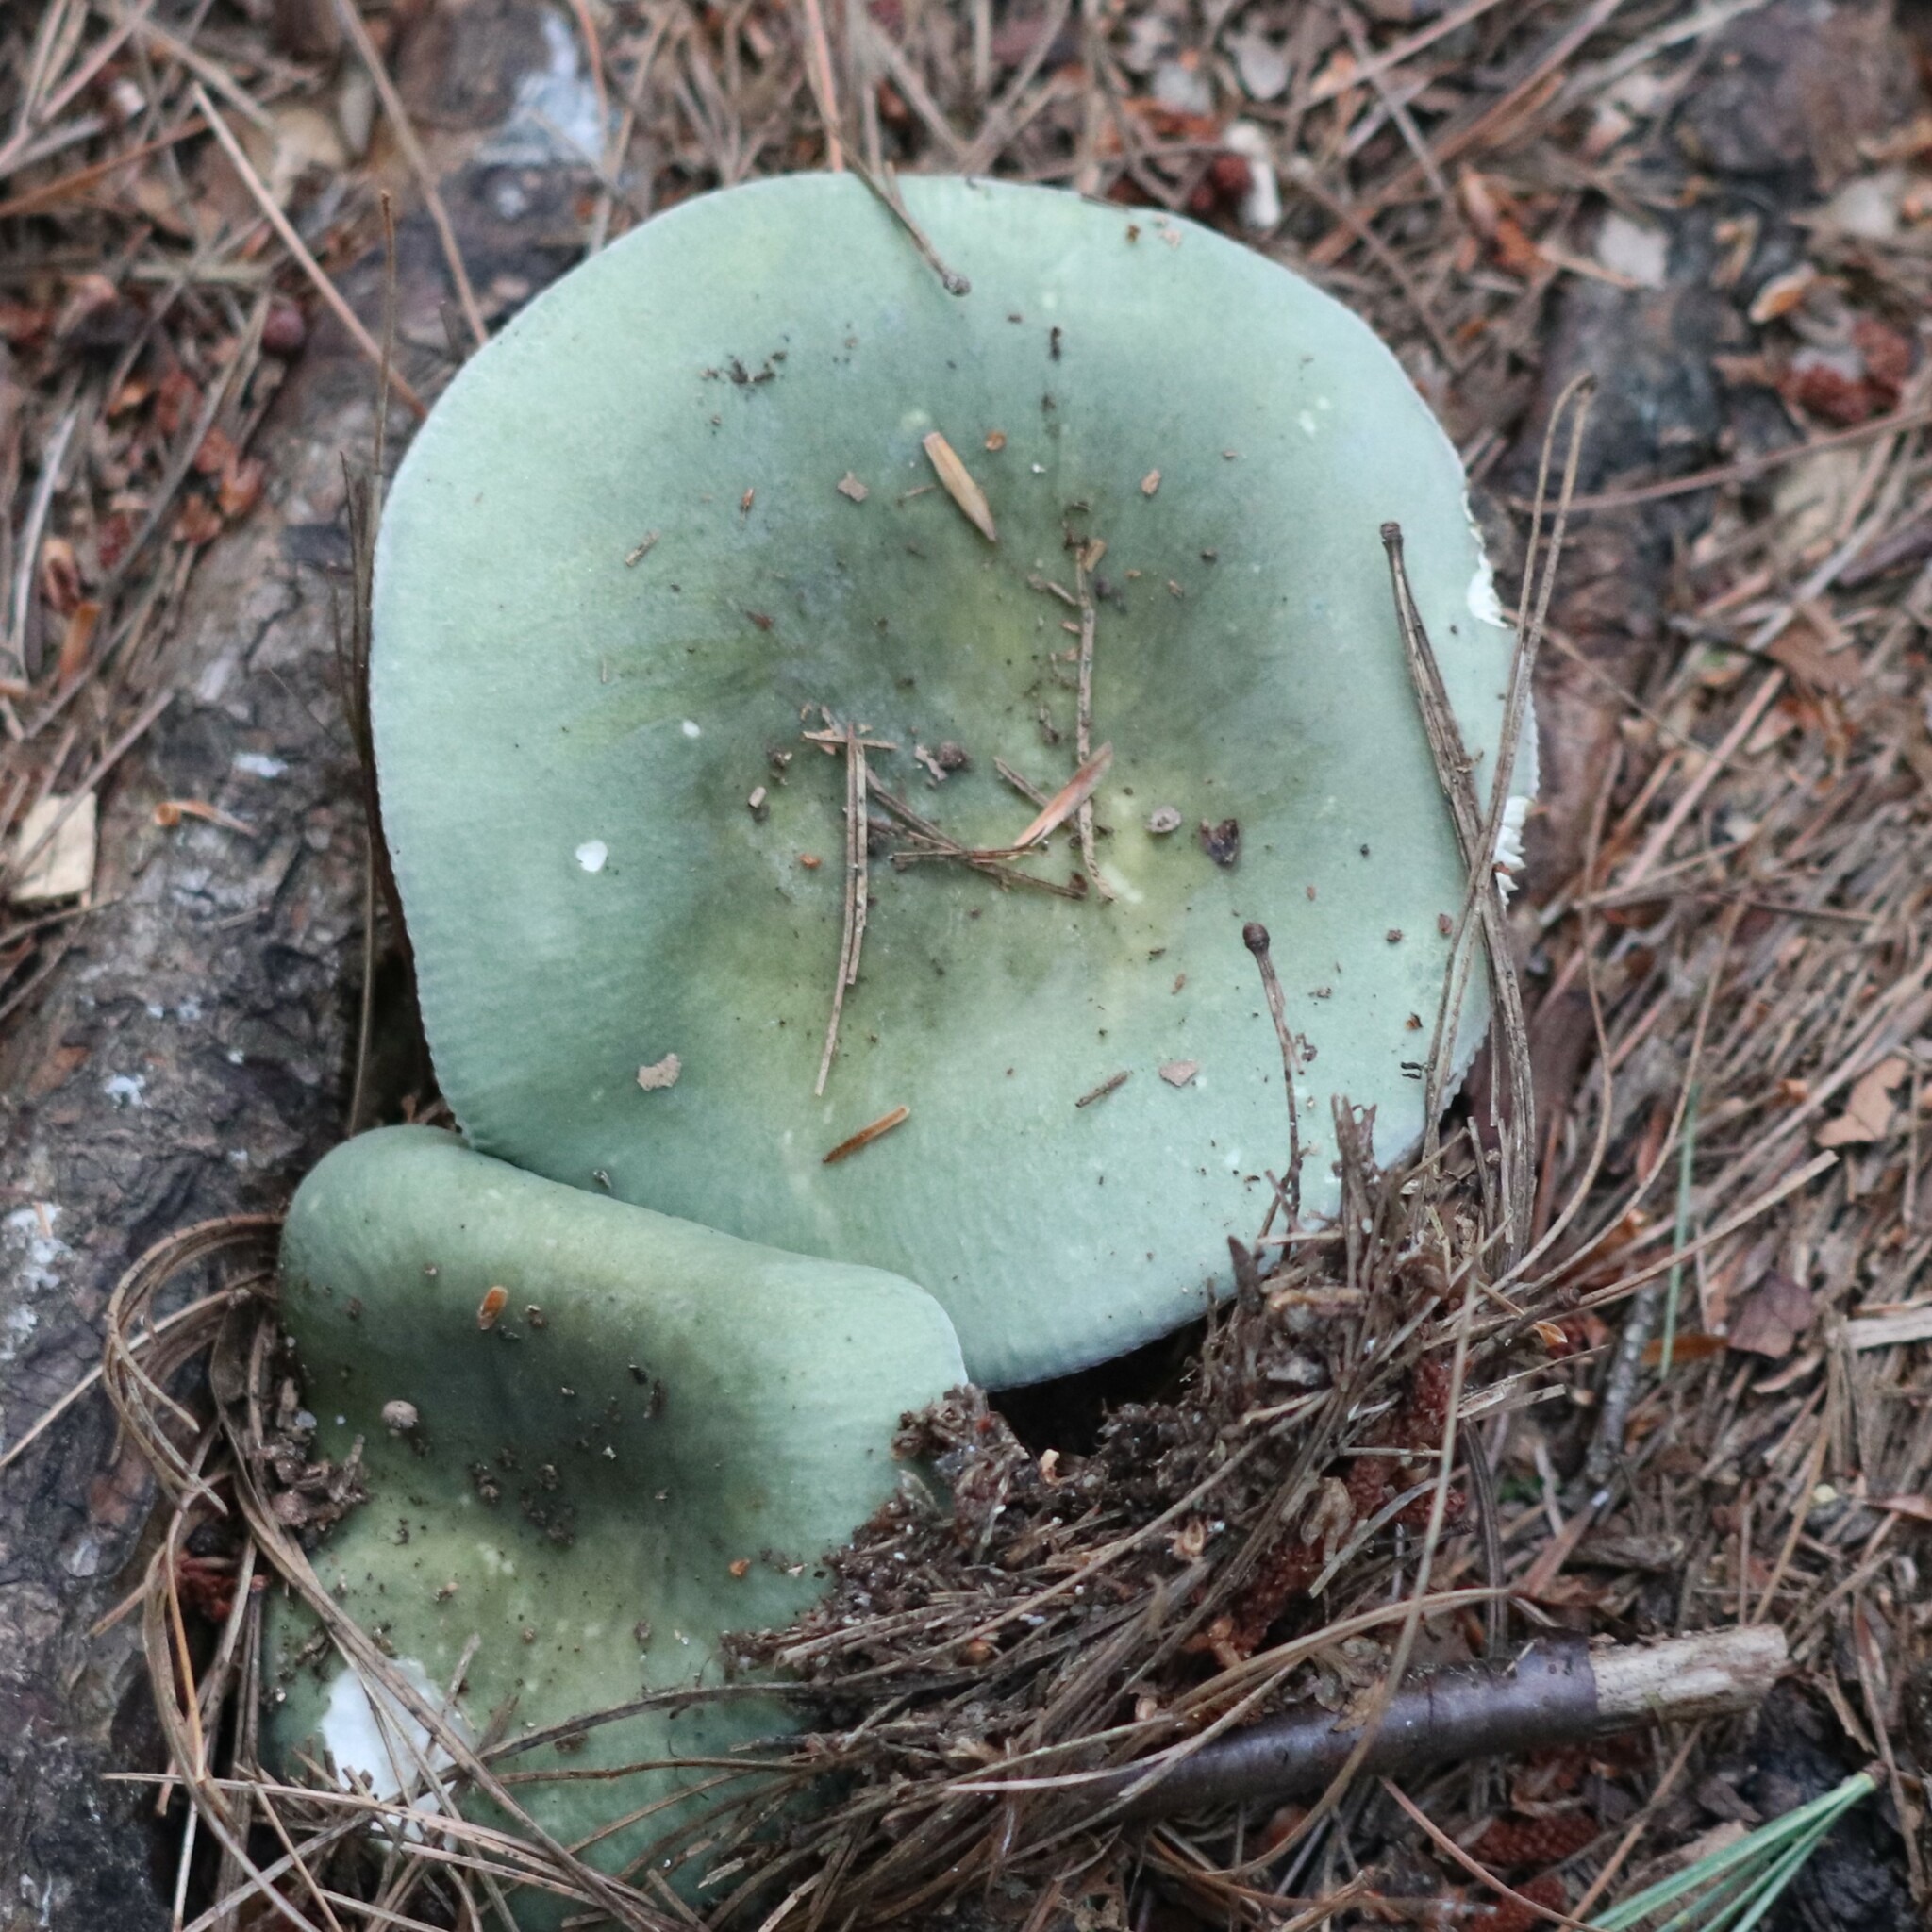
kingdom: Fungi
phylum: Basidiomycota
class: Agaricomycetes
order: Russulales
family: Russulaceae
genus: Russula
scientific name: Russula aeruginea
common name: Green brittlegill
